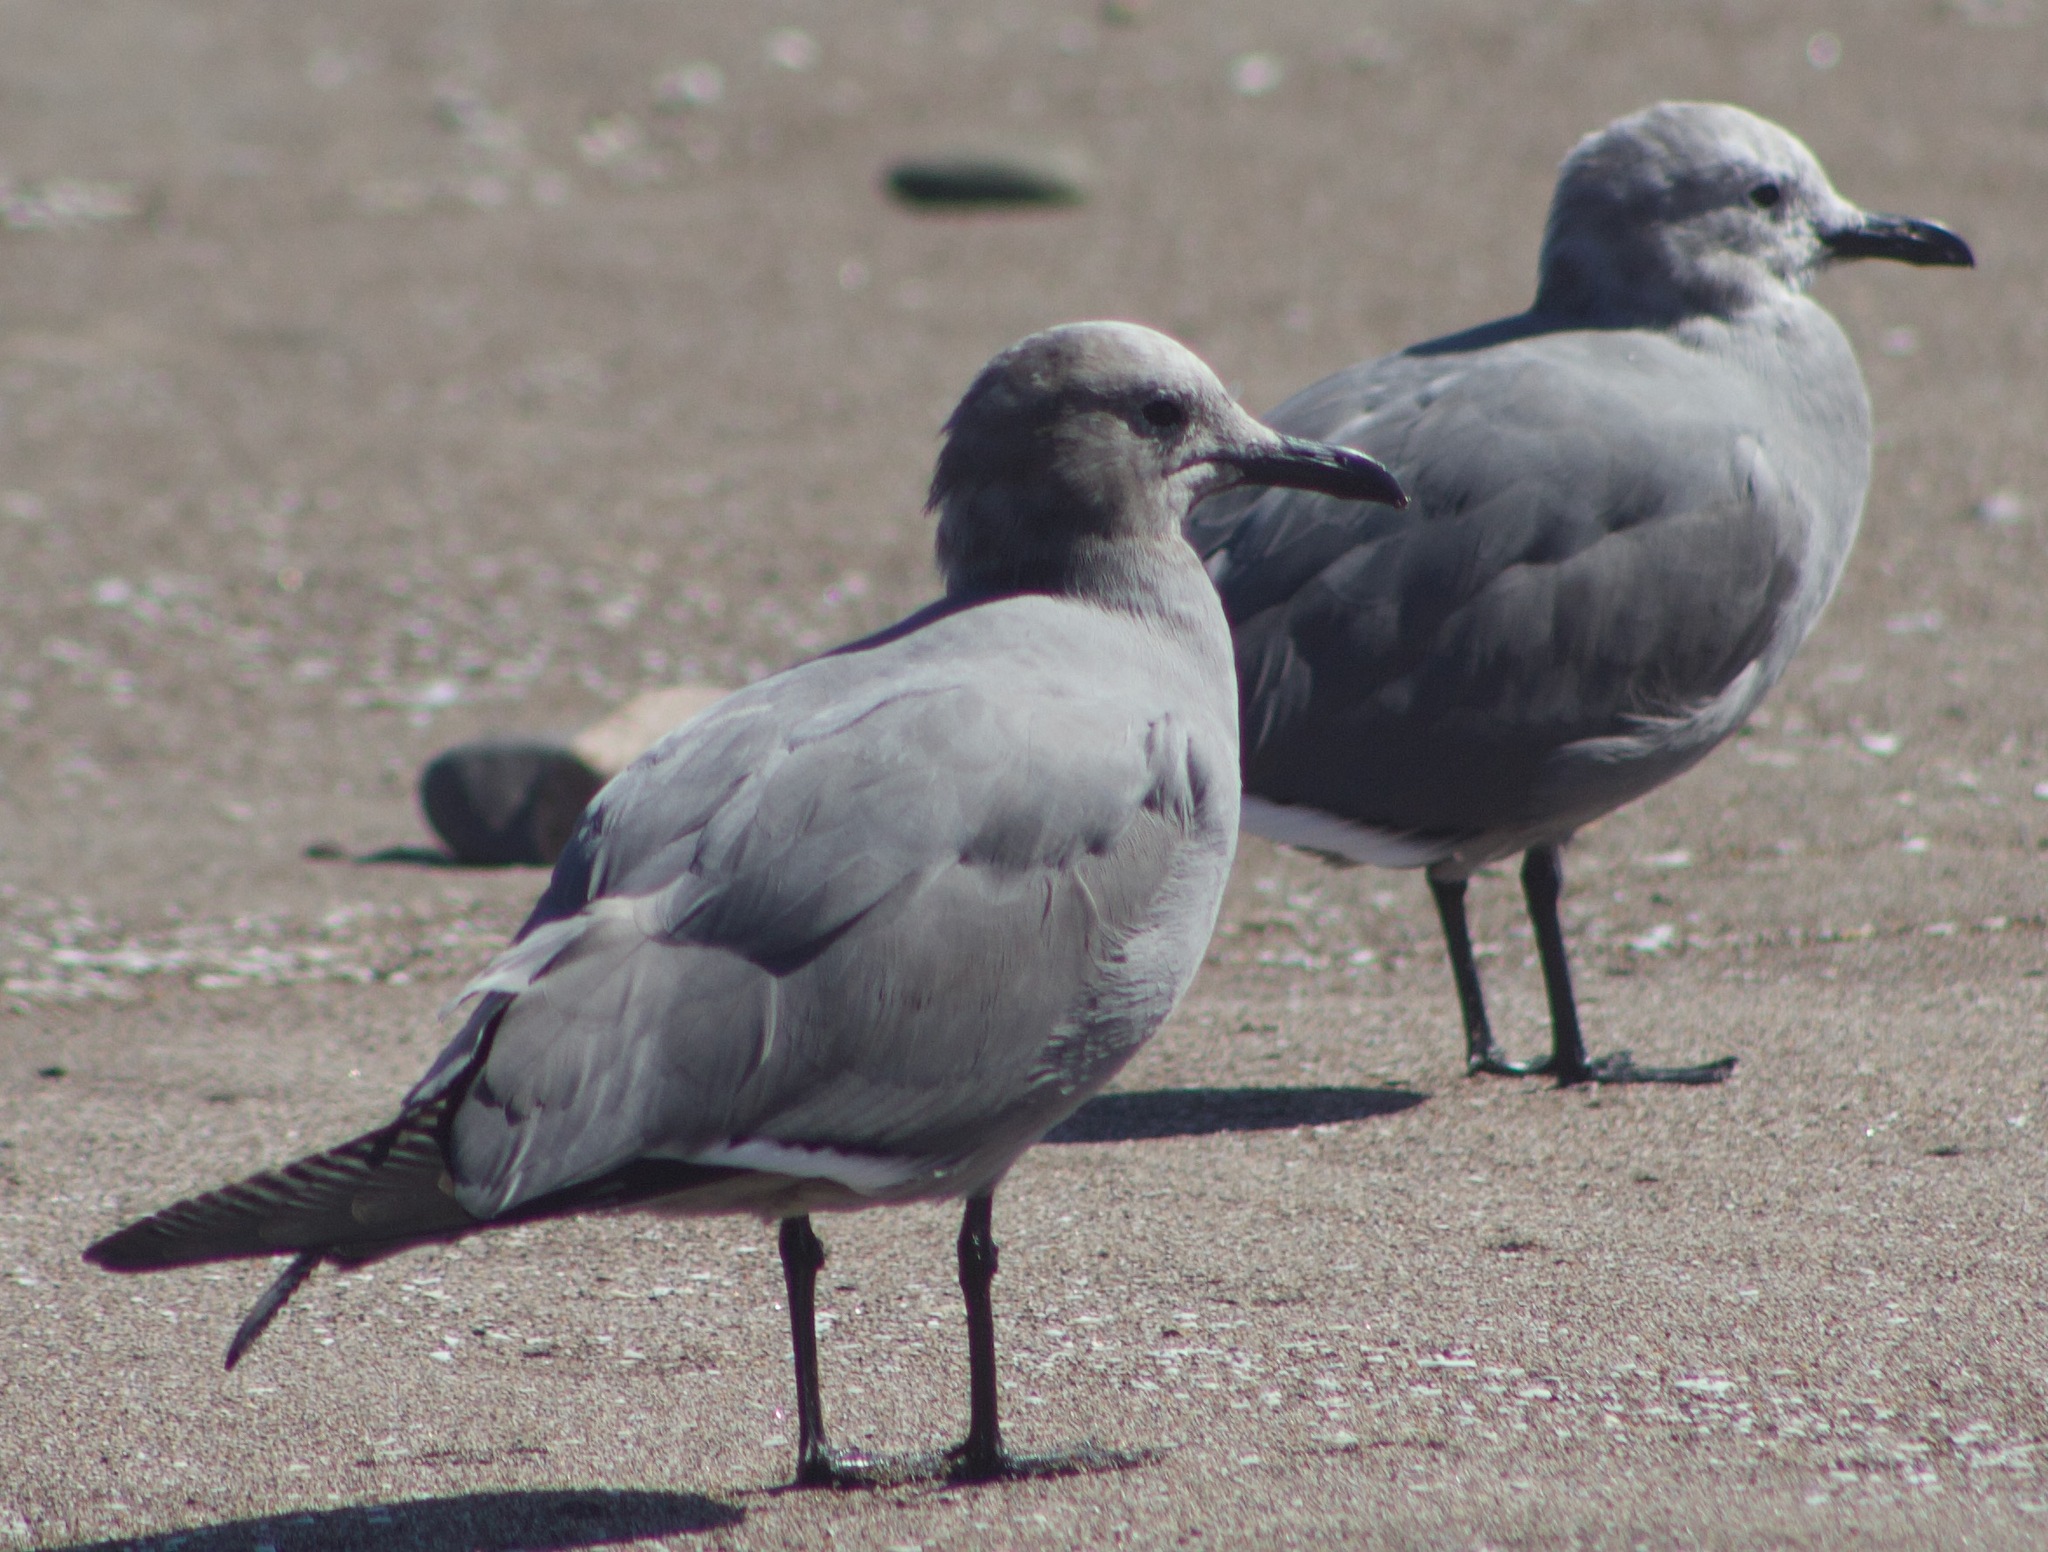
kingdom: Animalia
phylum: Chordata
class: Aves
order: Charadriiformes
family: Laridae
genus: Leucophaeus
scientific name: Leucophaeus modestus
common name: Gray gull
